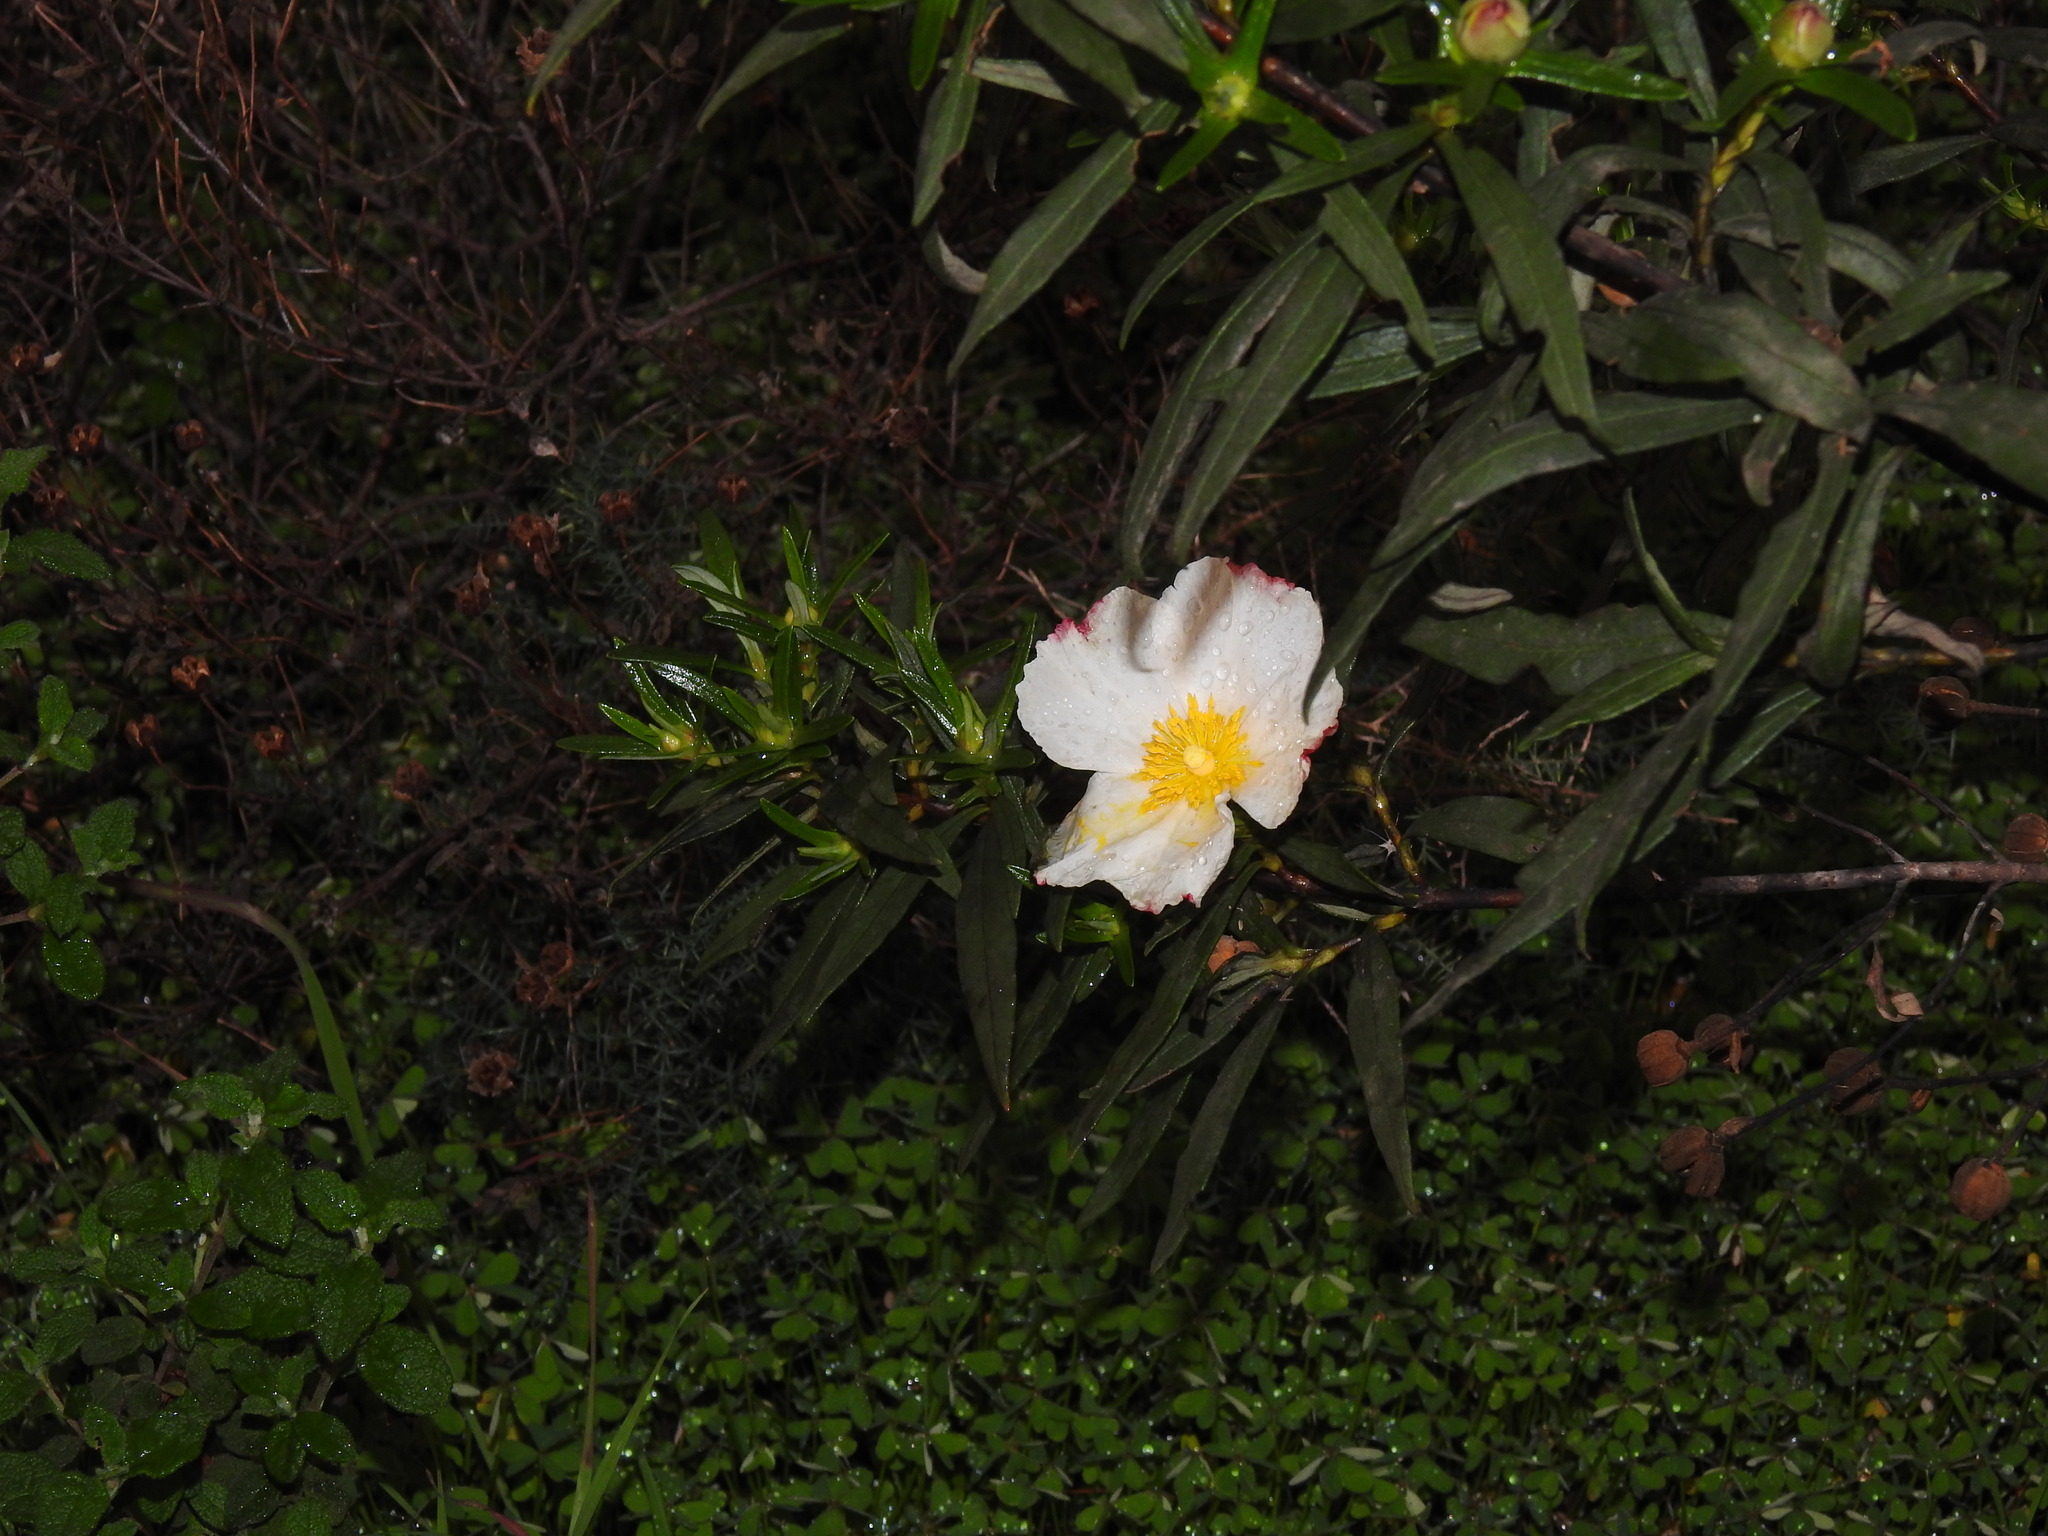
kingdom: Plantae
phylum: Tracheophyta
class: Magnoliopsida
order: Malvales
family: Cistaceae
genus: Cistus
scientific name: Cistus ladanifer
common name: Common gum cistus
